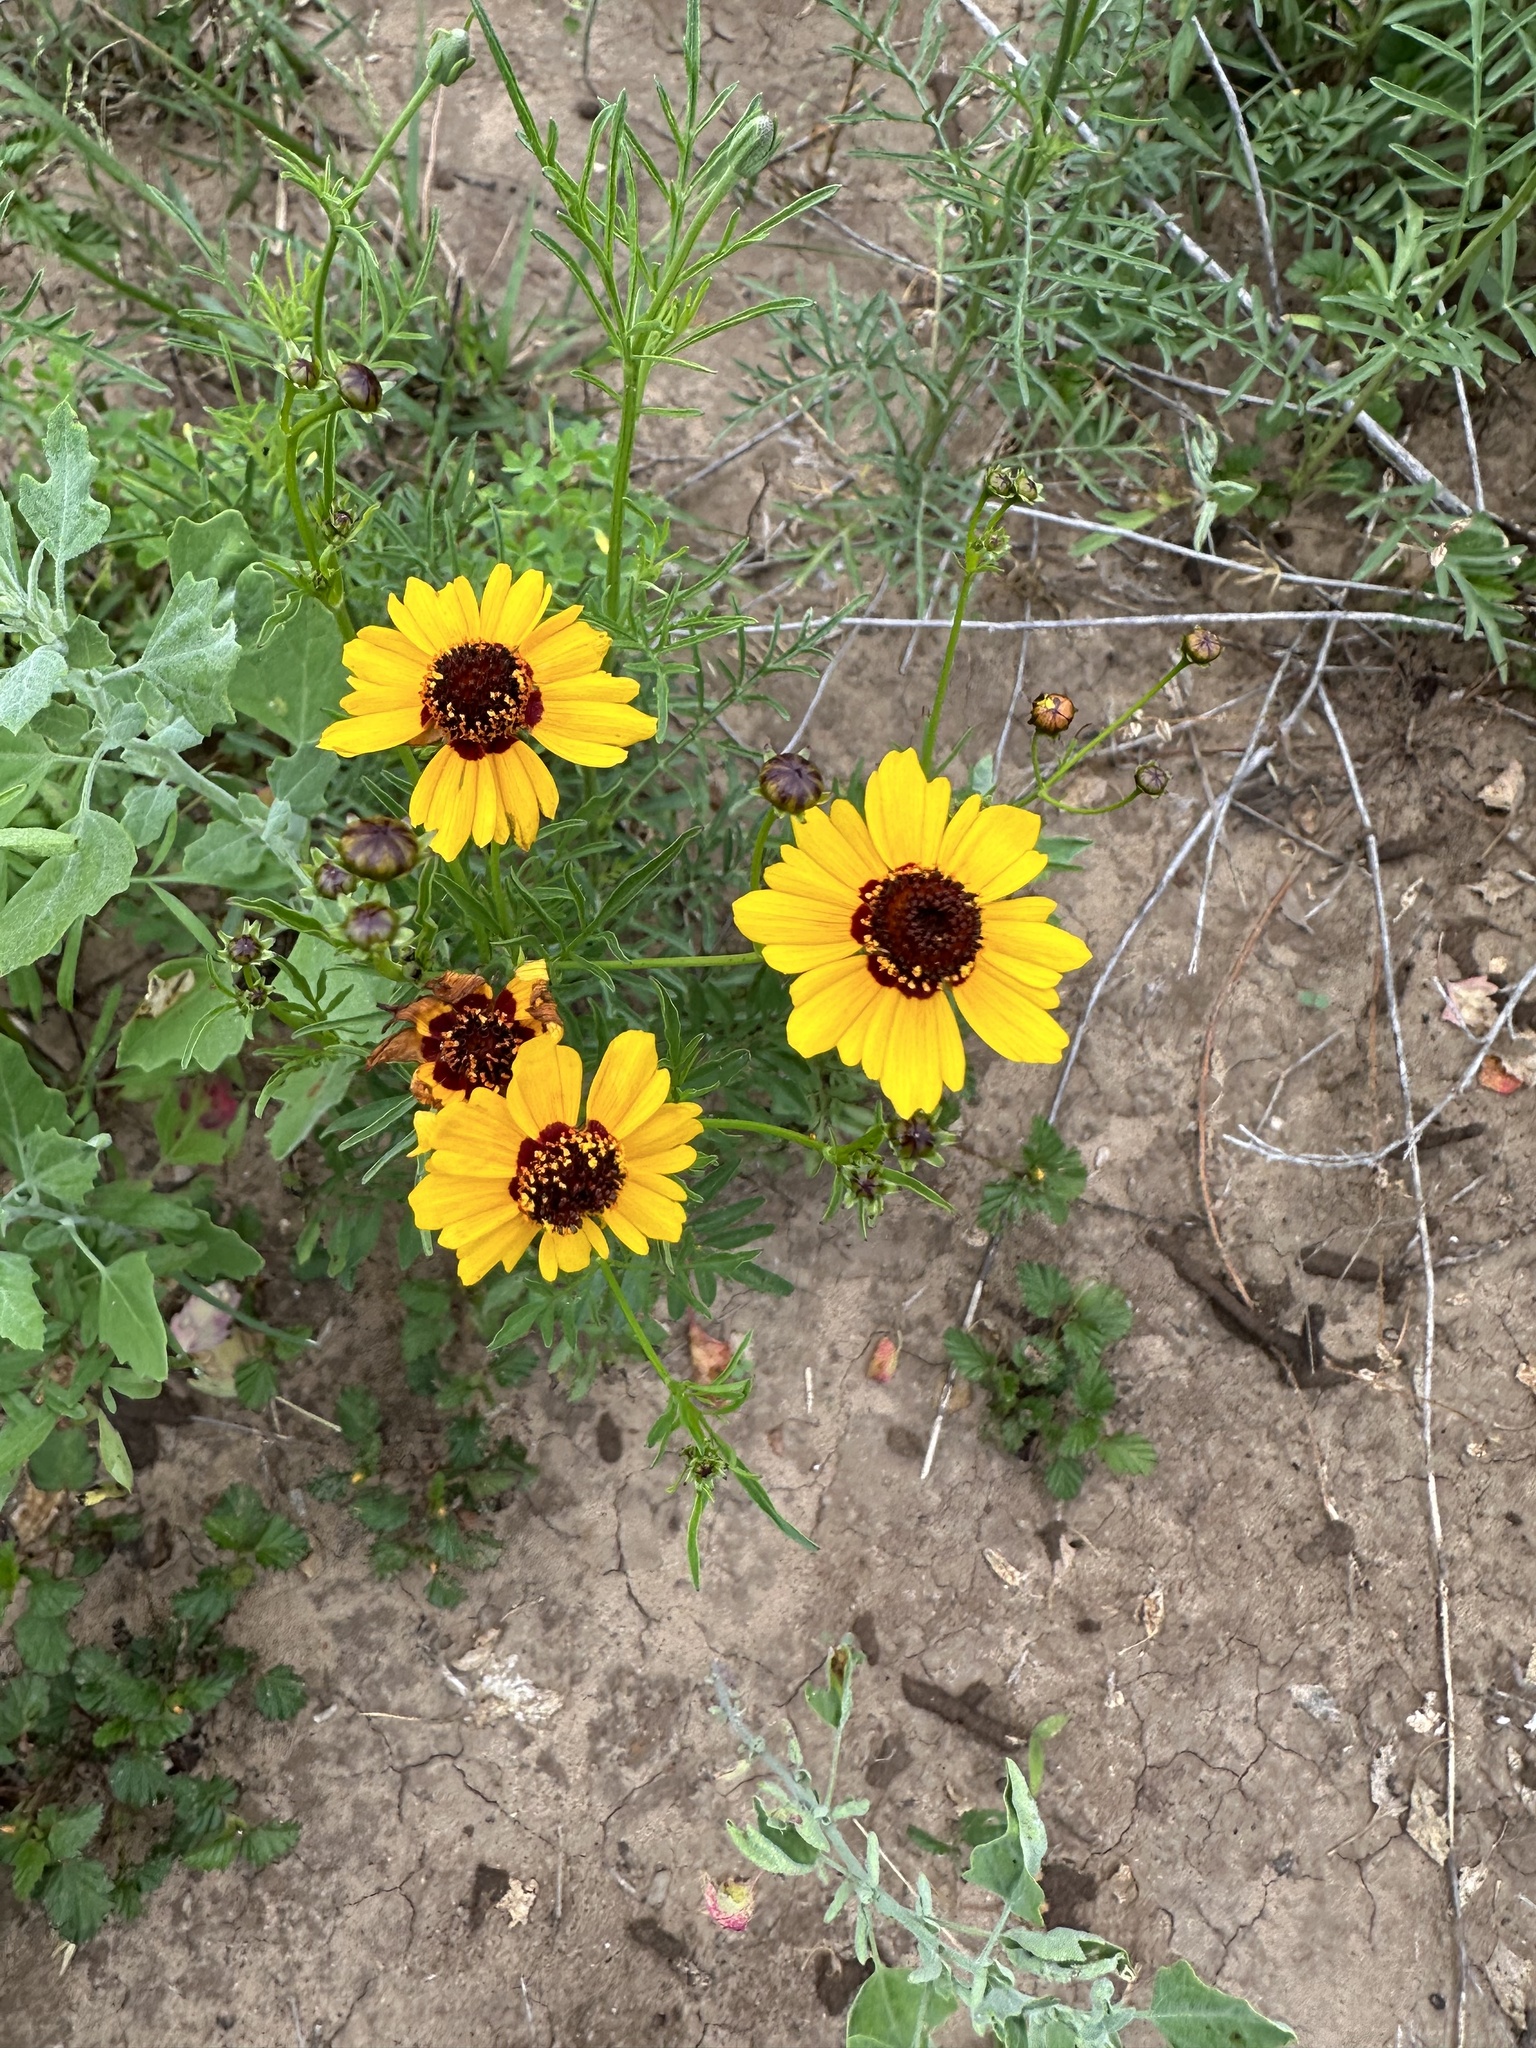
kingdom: Plantae
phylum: Tracheophyta
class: Magnoliopsida
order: Asterales
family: Asteraceae
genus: Coreopsis
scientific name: Coreopsis tinctoria
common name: Garden tickseed
